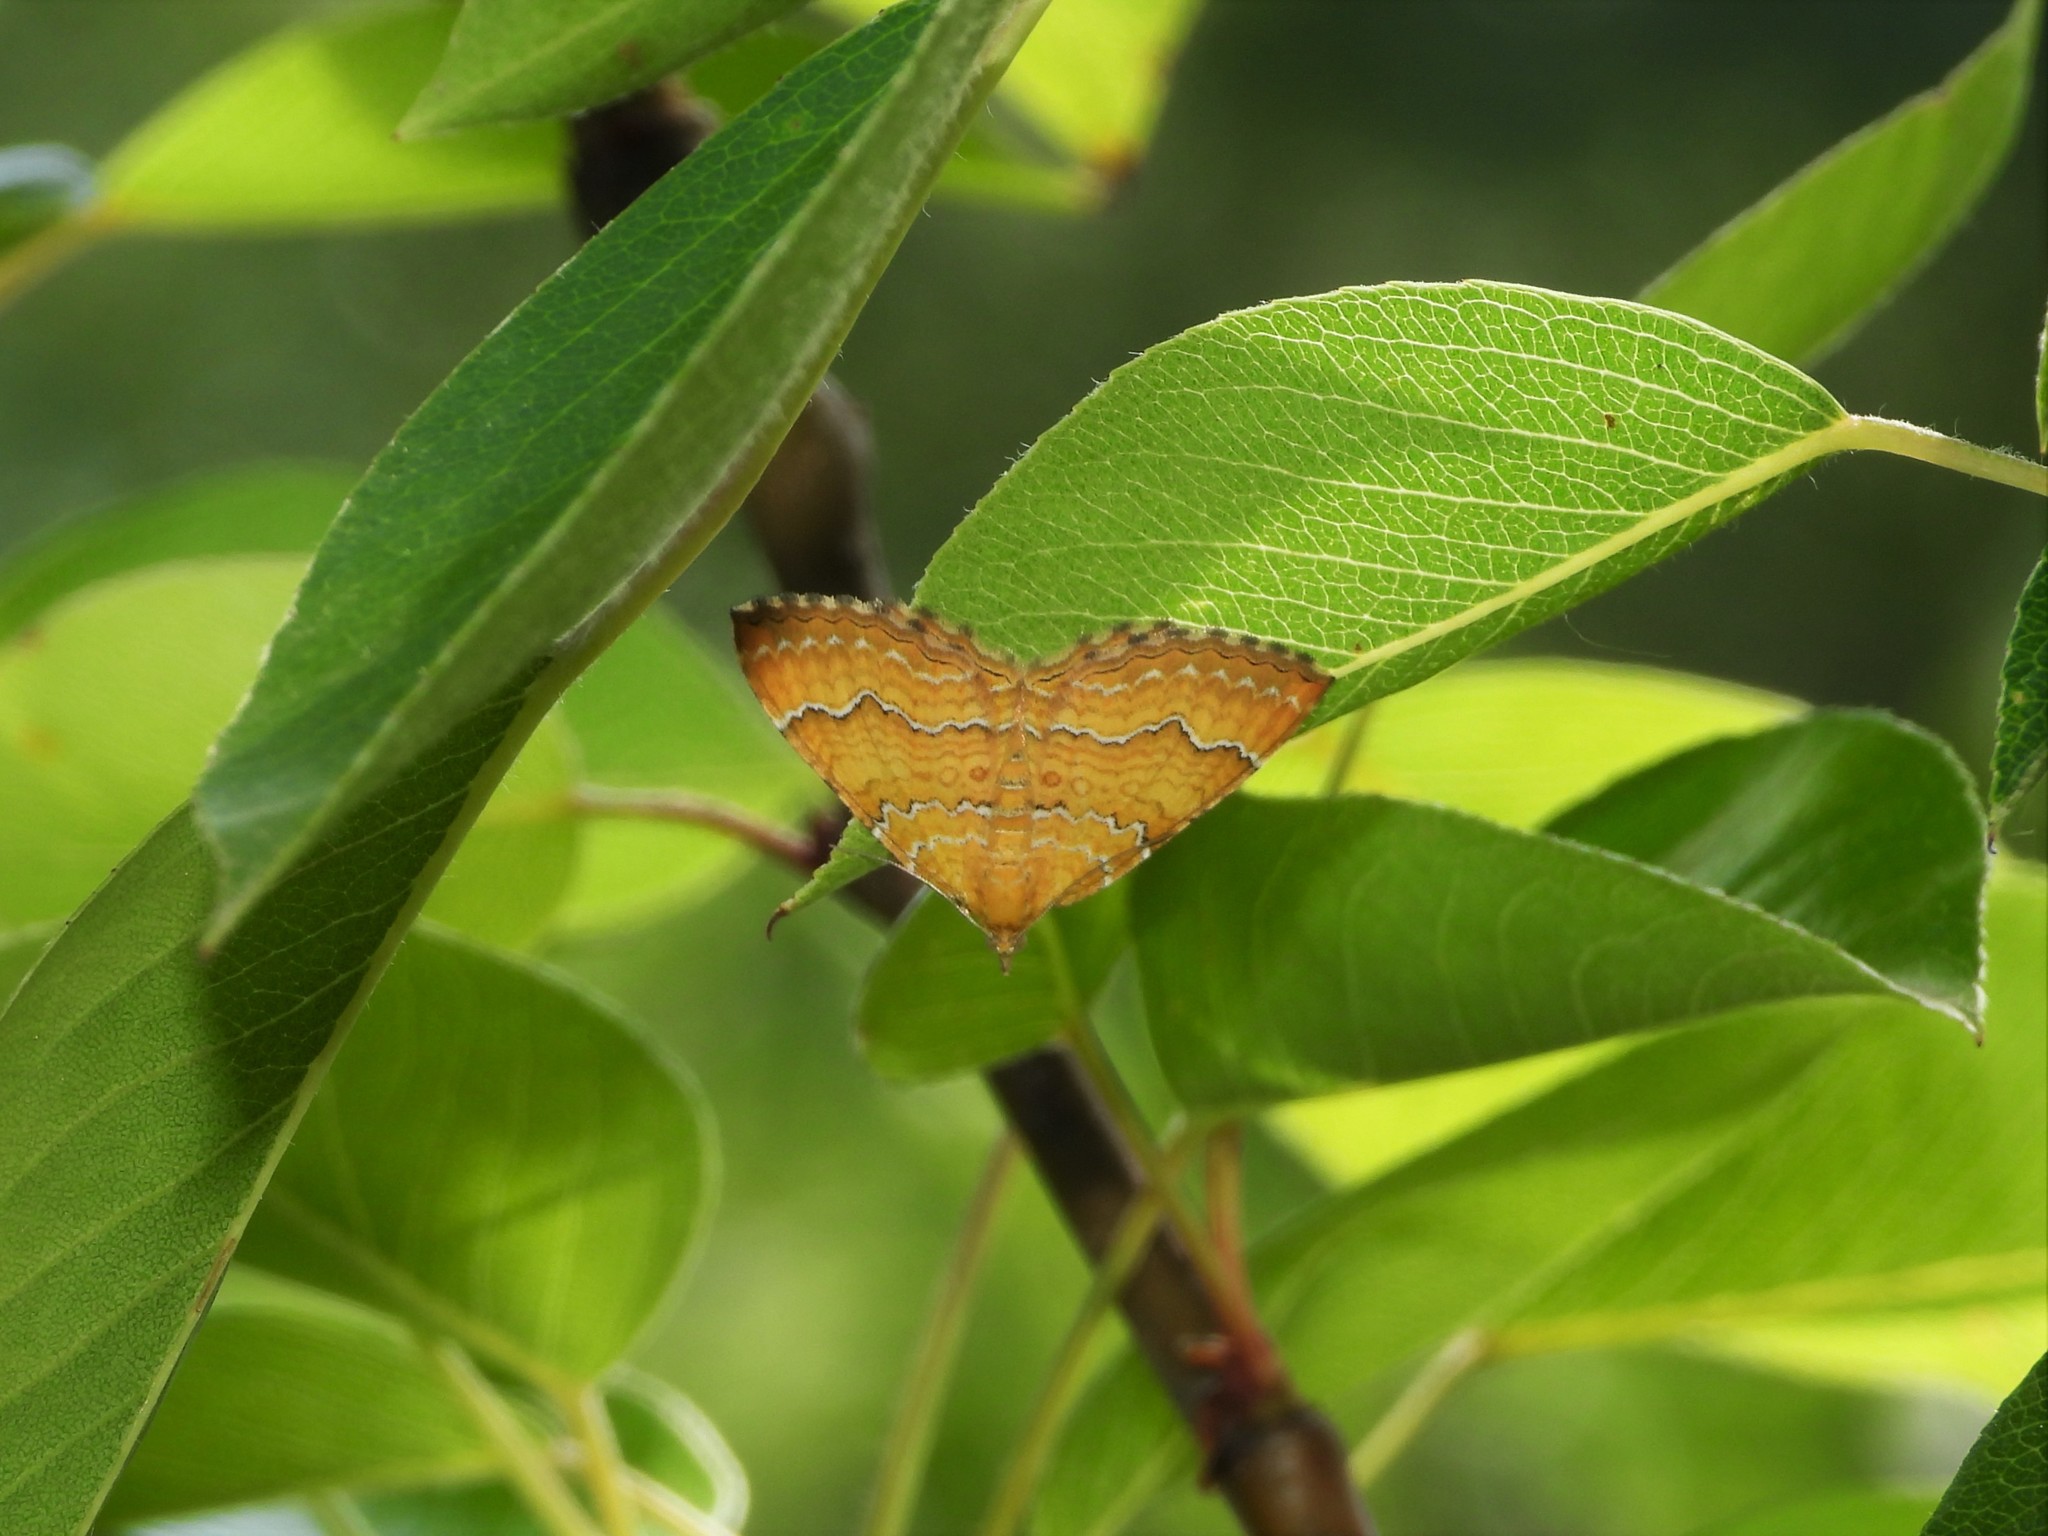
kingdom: Animalia
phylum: Arthropoda
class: Insecta
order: Lepidoptera
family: Geometridae
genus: Camptogramma
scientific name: Camptogramma bilineata
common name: Yellow shell
